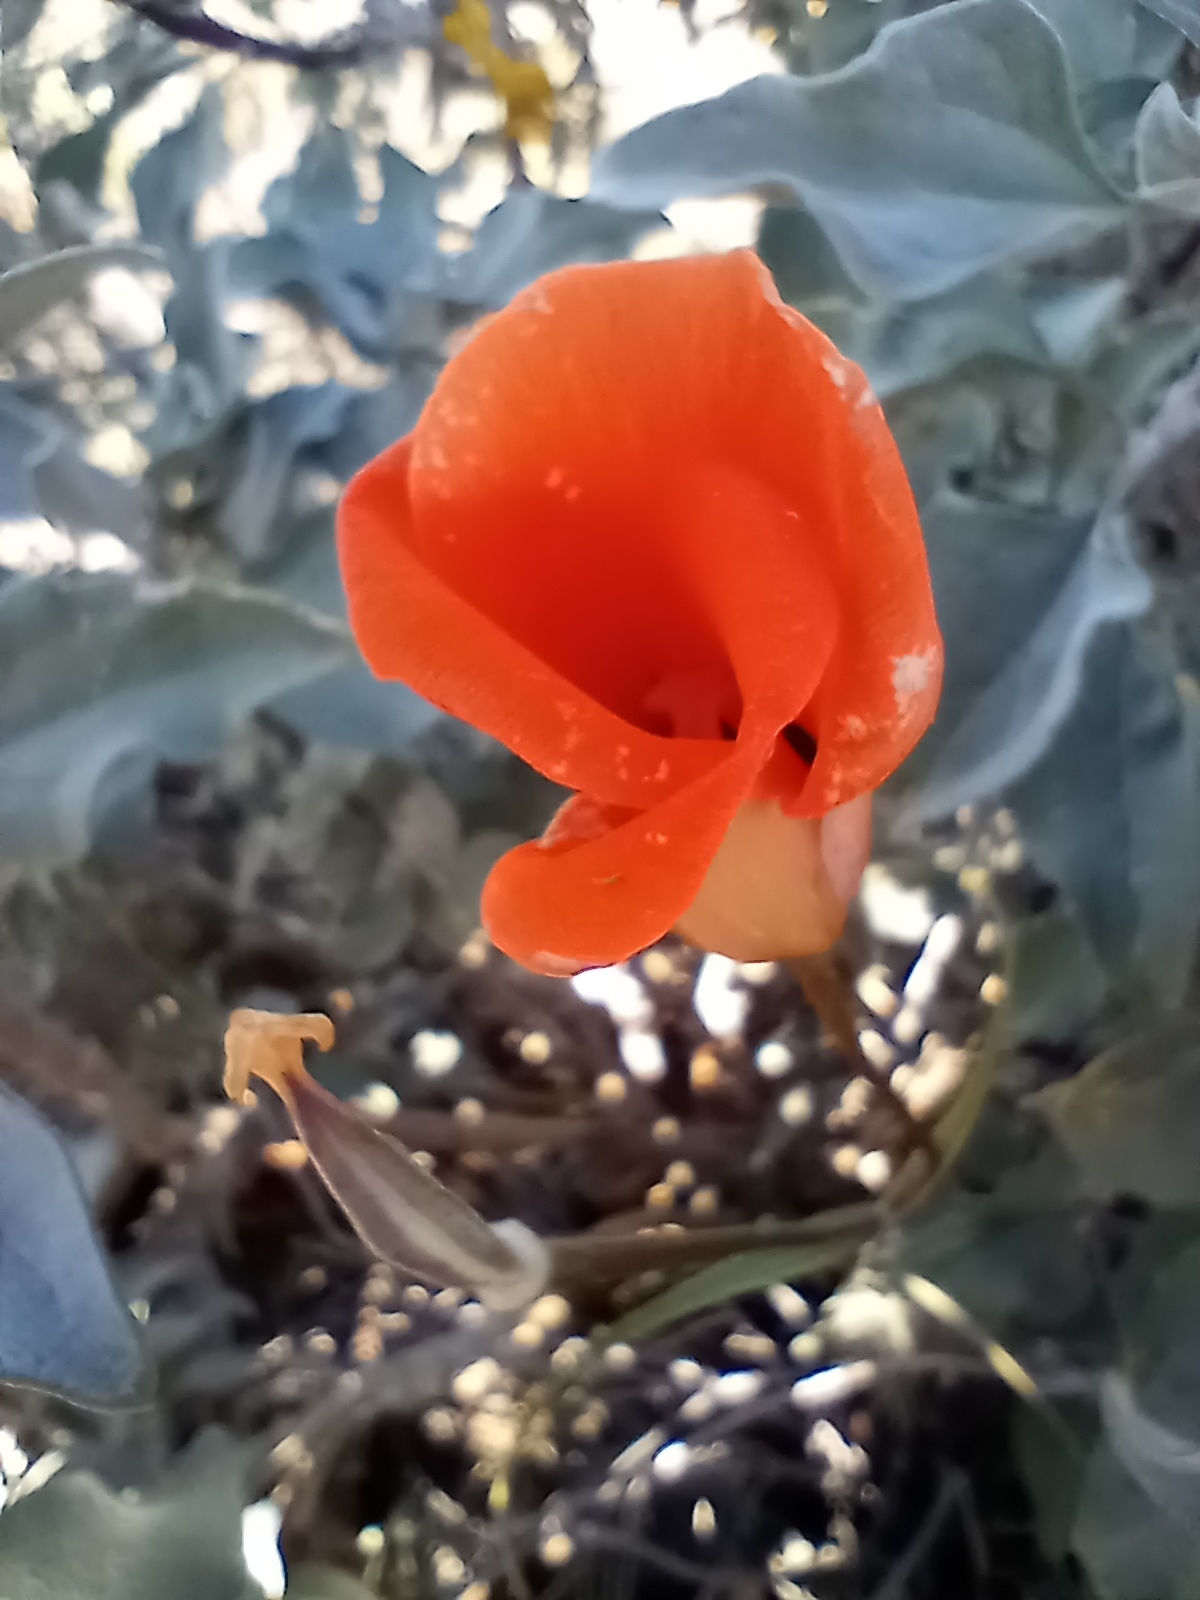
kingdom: Plantae
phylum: Tracheophyta
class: Liliopsida
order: Liliales
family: Liliaceae
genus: Calochortus
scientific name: Calochortus kennedyi
